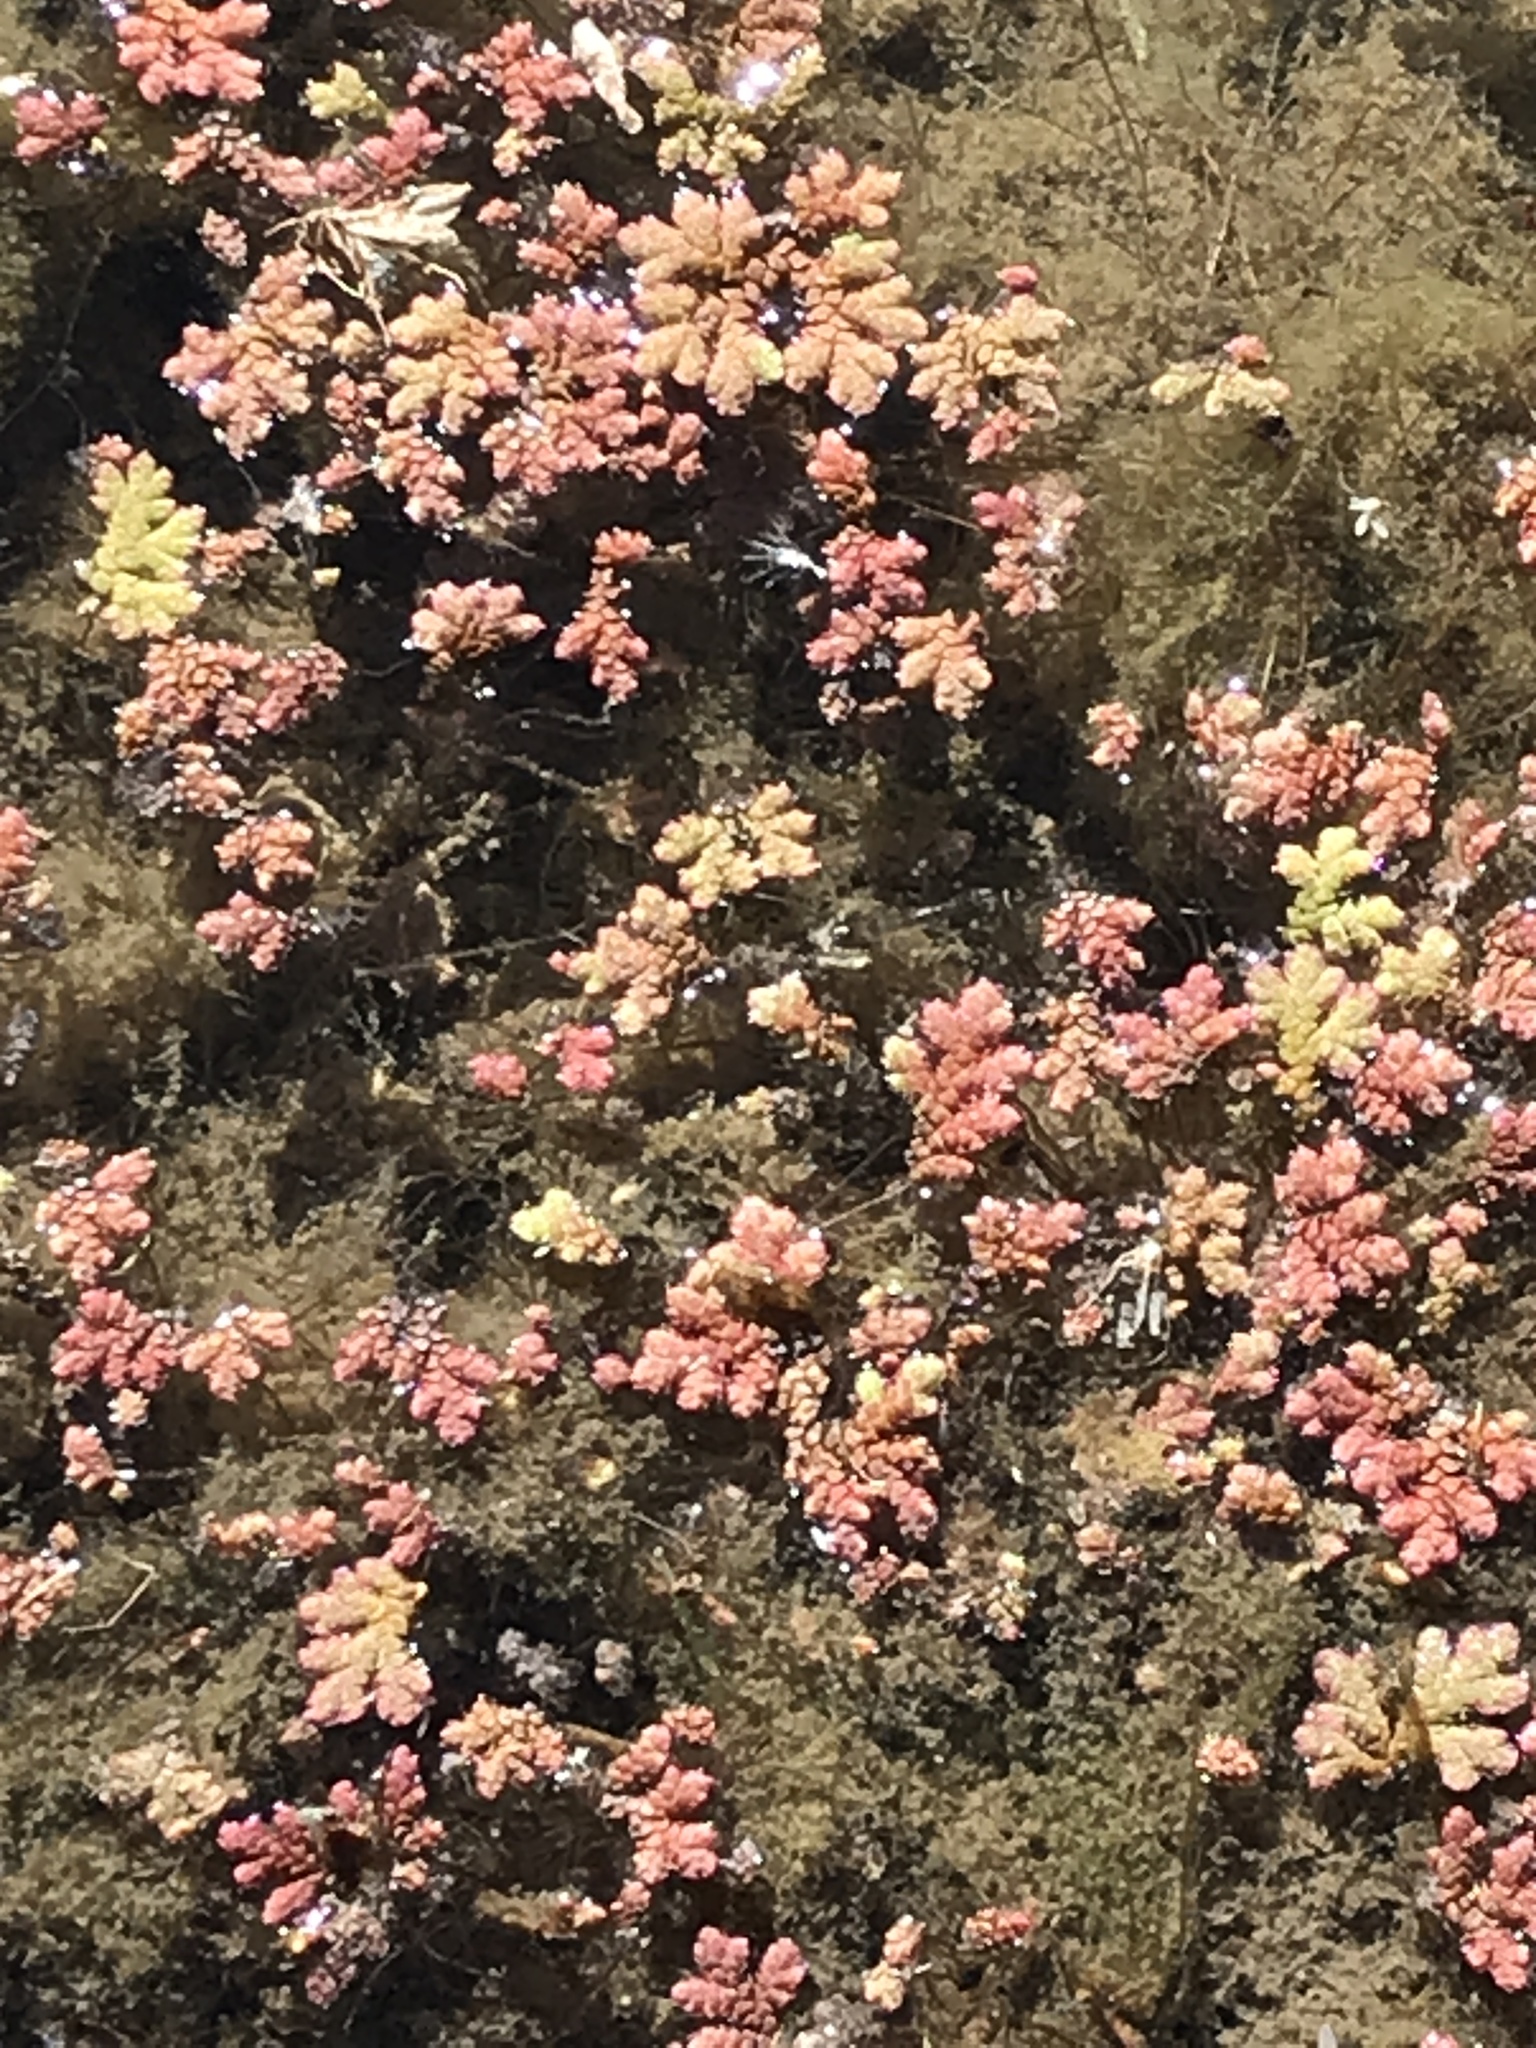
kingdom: Plantae
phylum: Tracheophyta
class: Polypodiopsida
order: Salviniales
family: Salviniaceae
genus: Azolla
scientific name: Azolla rubra
